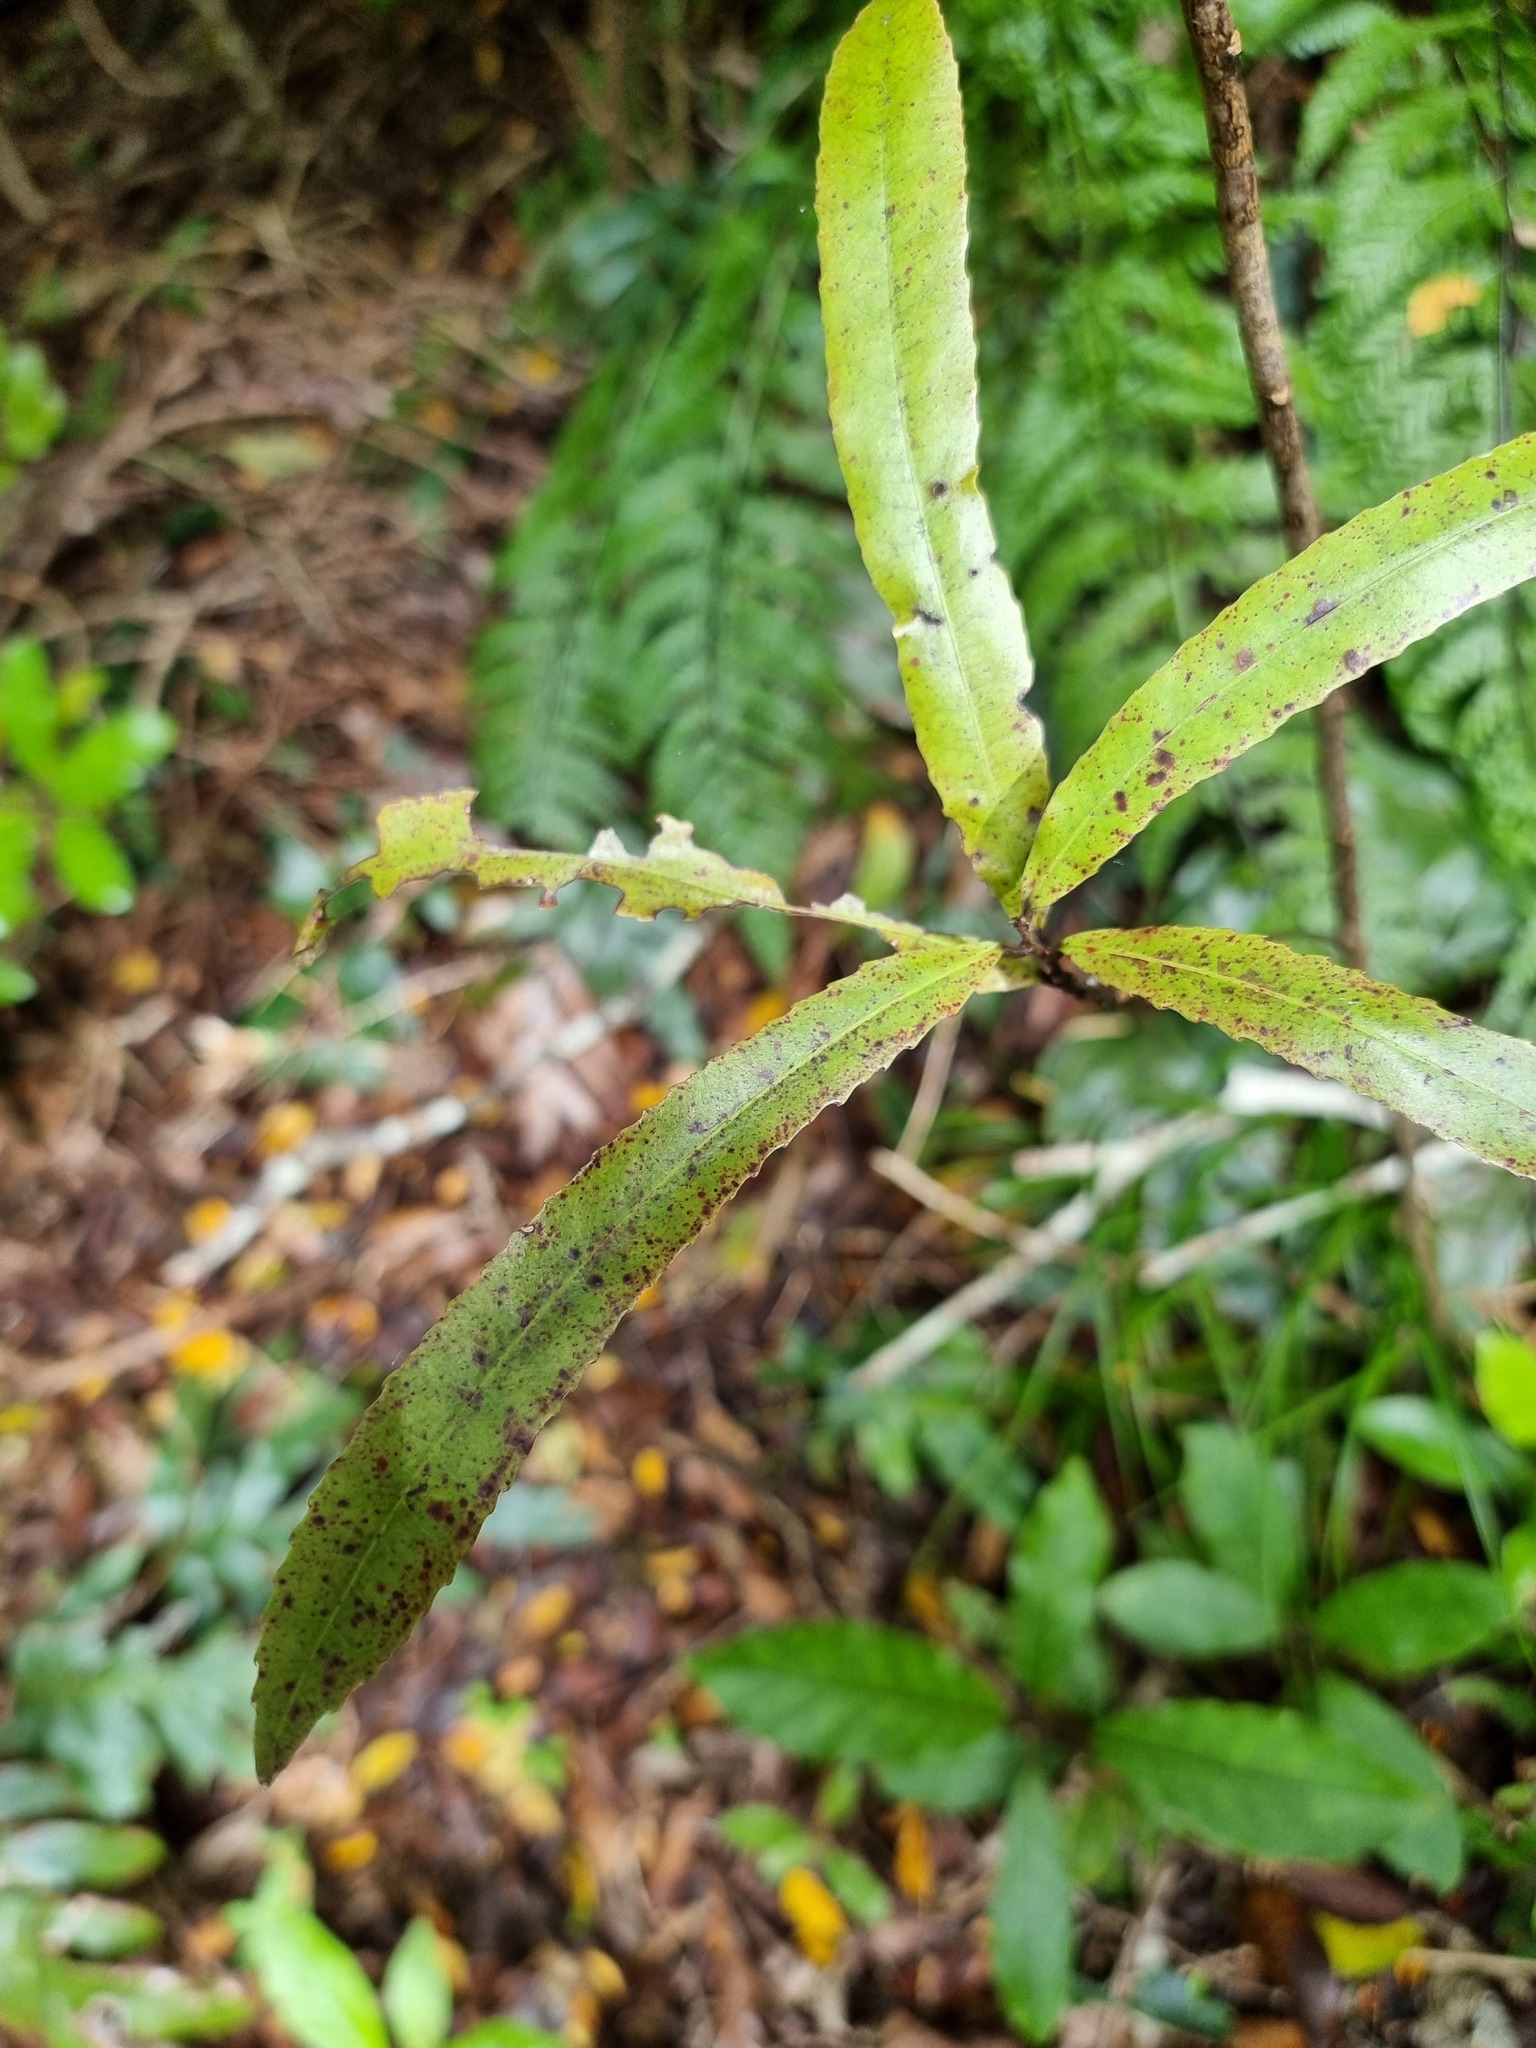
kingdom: Plantae
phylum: Tracheophyta
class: Magnoliopsida
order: Ericales
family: Primulaceae
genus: Myrsine
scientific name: Myrsine salicina
